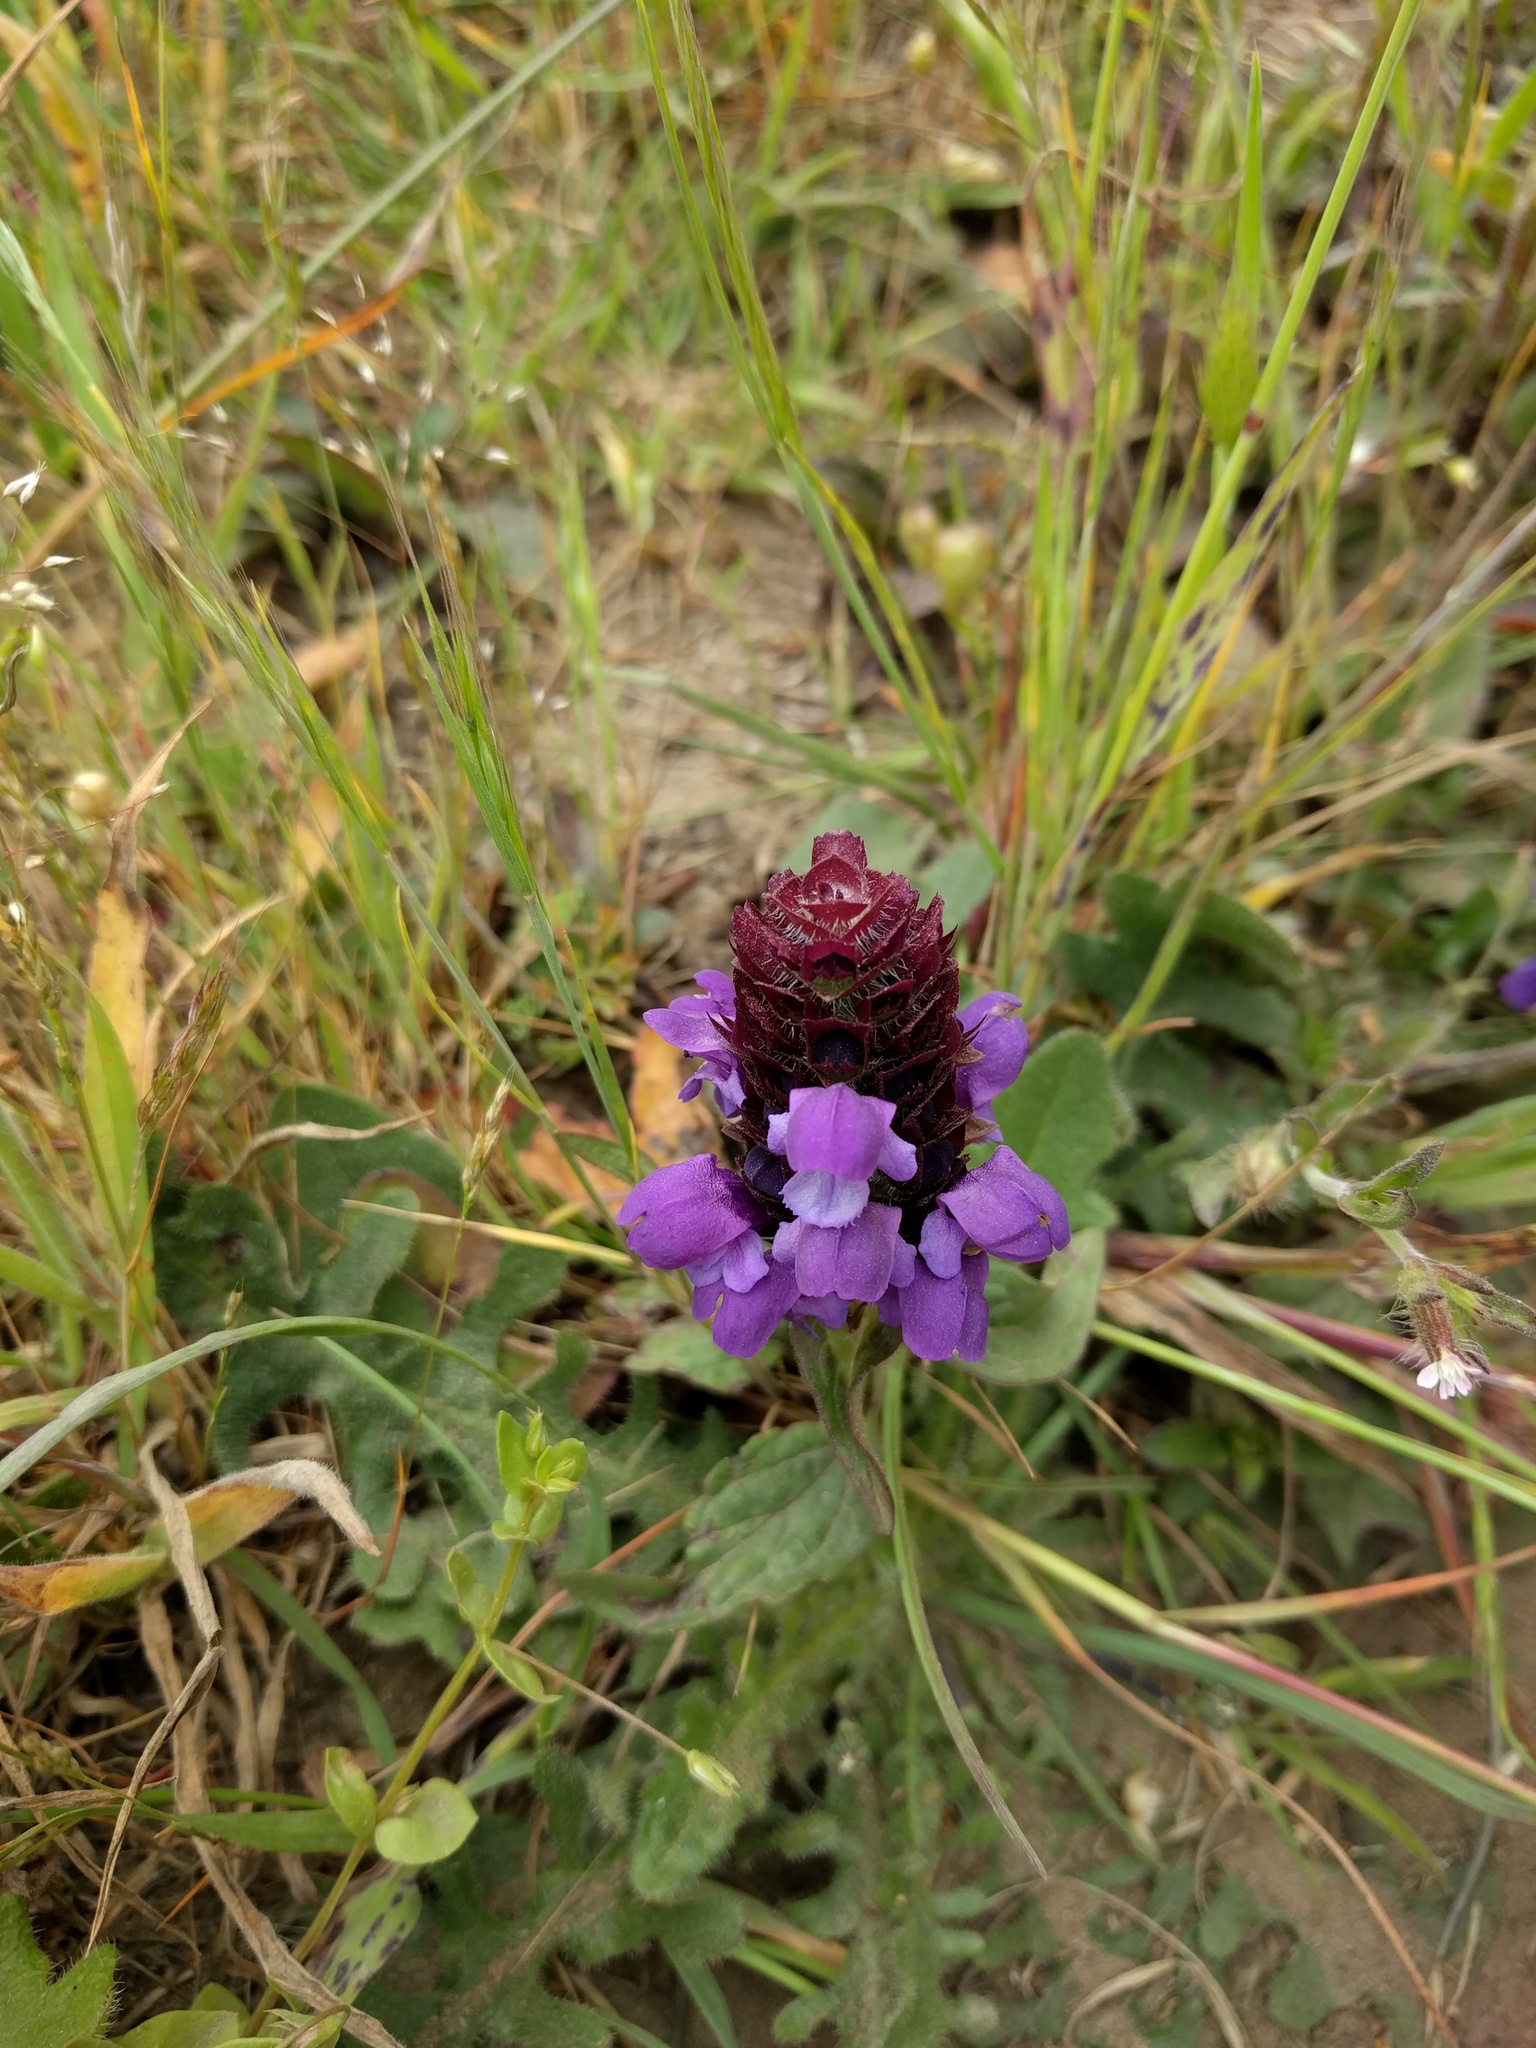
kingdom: Plantae
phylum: Tracheophyta
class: Magnoliopsida
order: Lamiales
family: Lamiaceae
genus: Prunella
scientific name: Prunella vulgaris
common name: Heal-all
